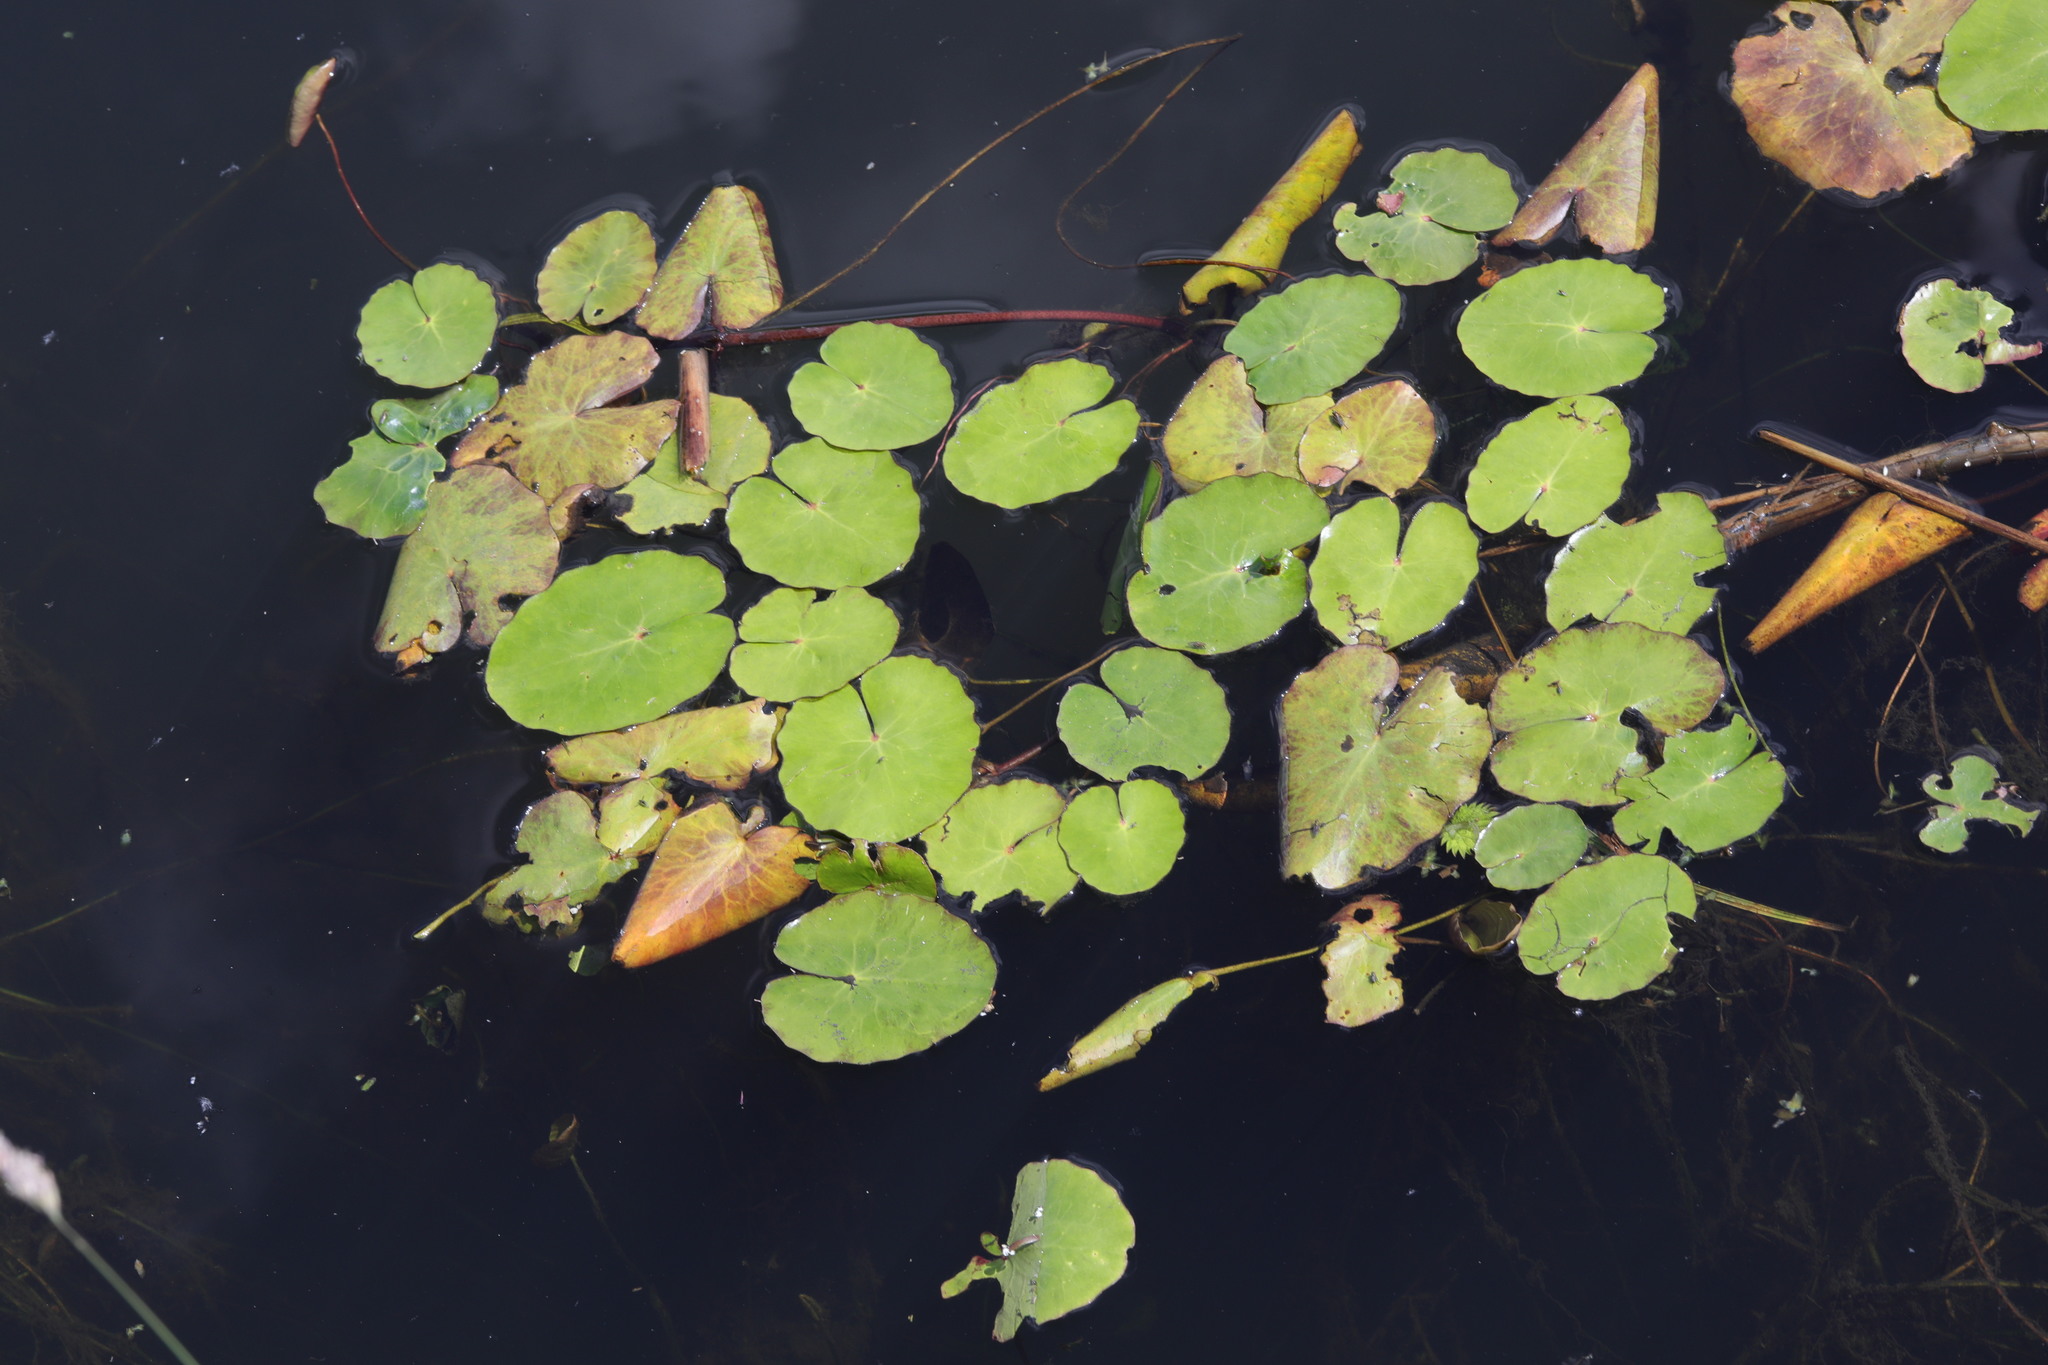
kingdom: Plantae
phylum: Tracheophyta
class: Magnoliopsida
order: Asterales
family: Menyanthaceae
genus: Nymphoides
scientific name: Nymphoides peltata
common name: Fringed water-lily
